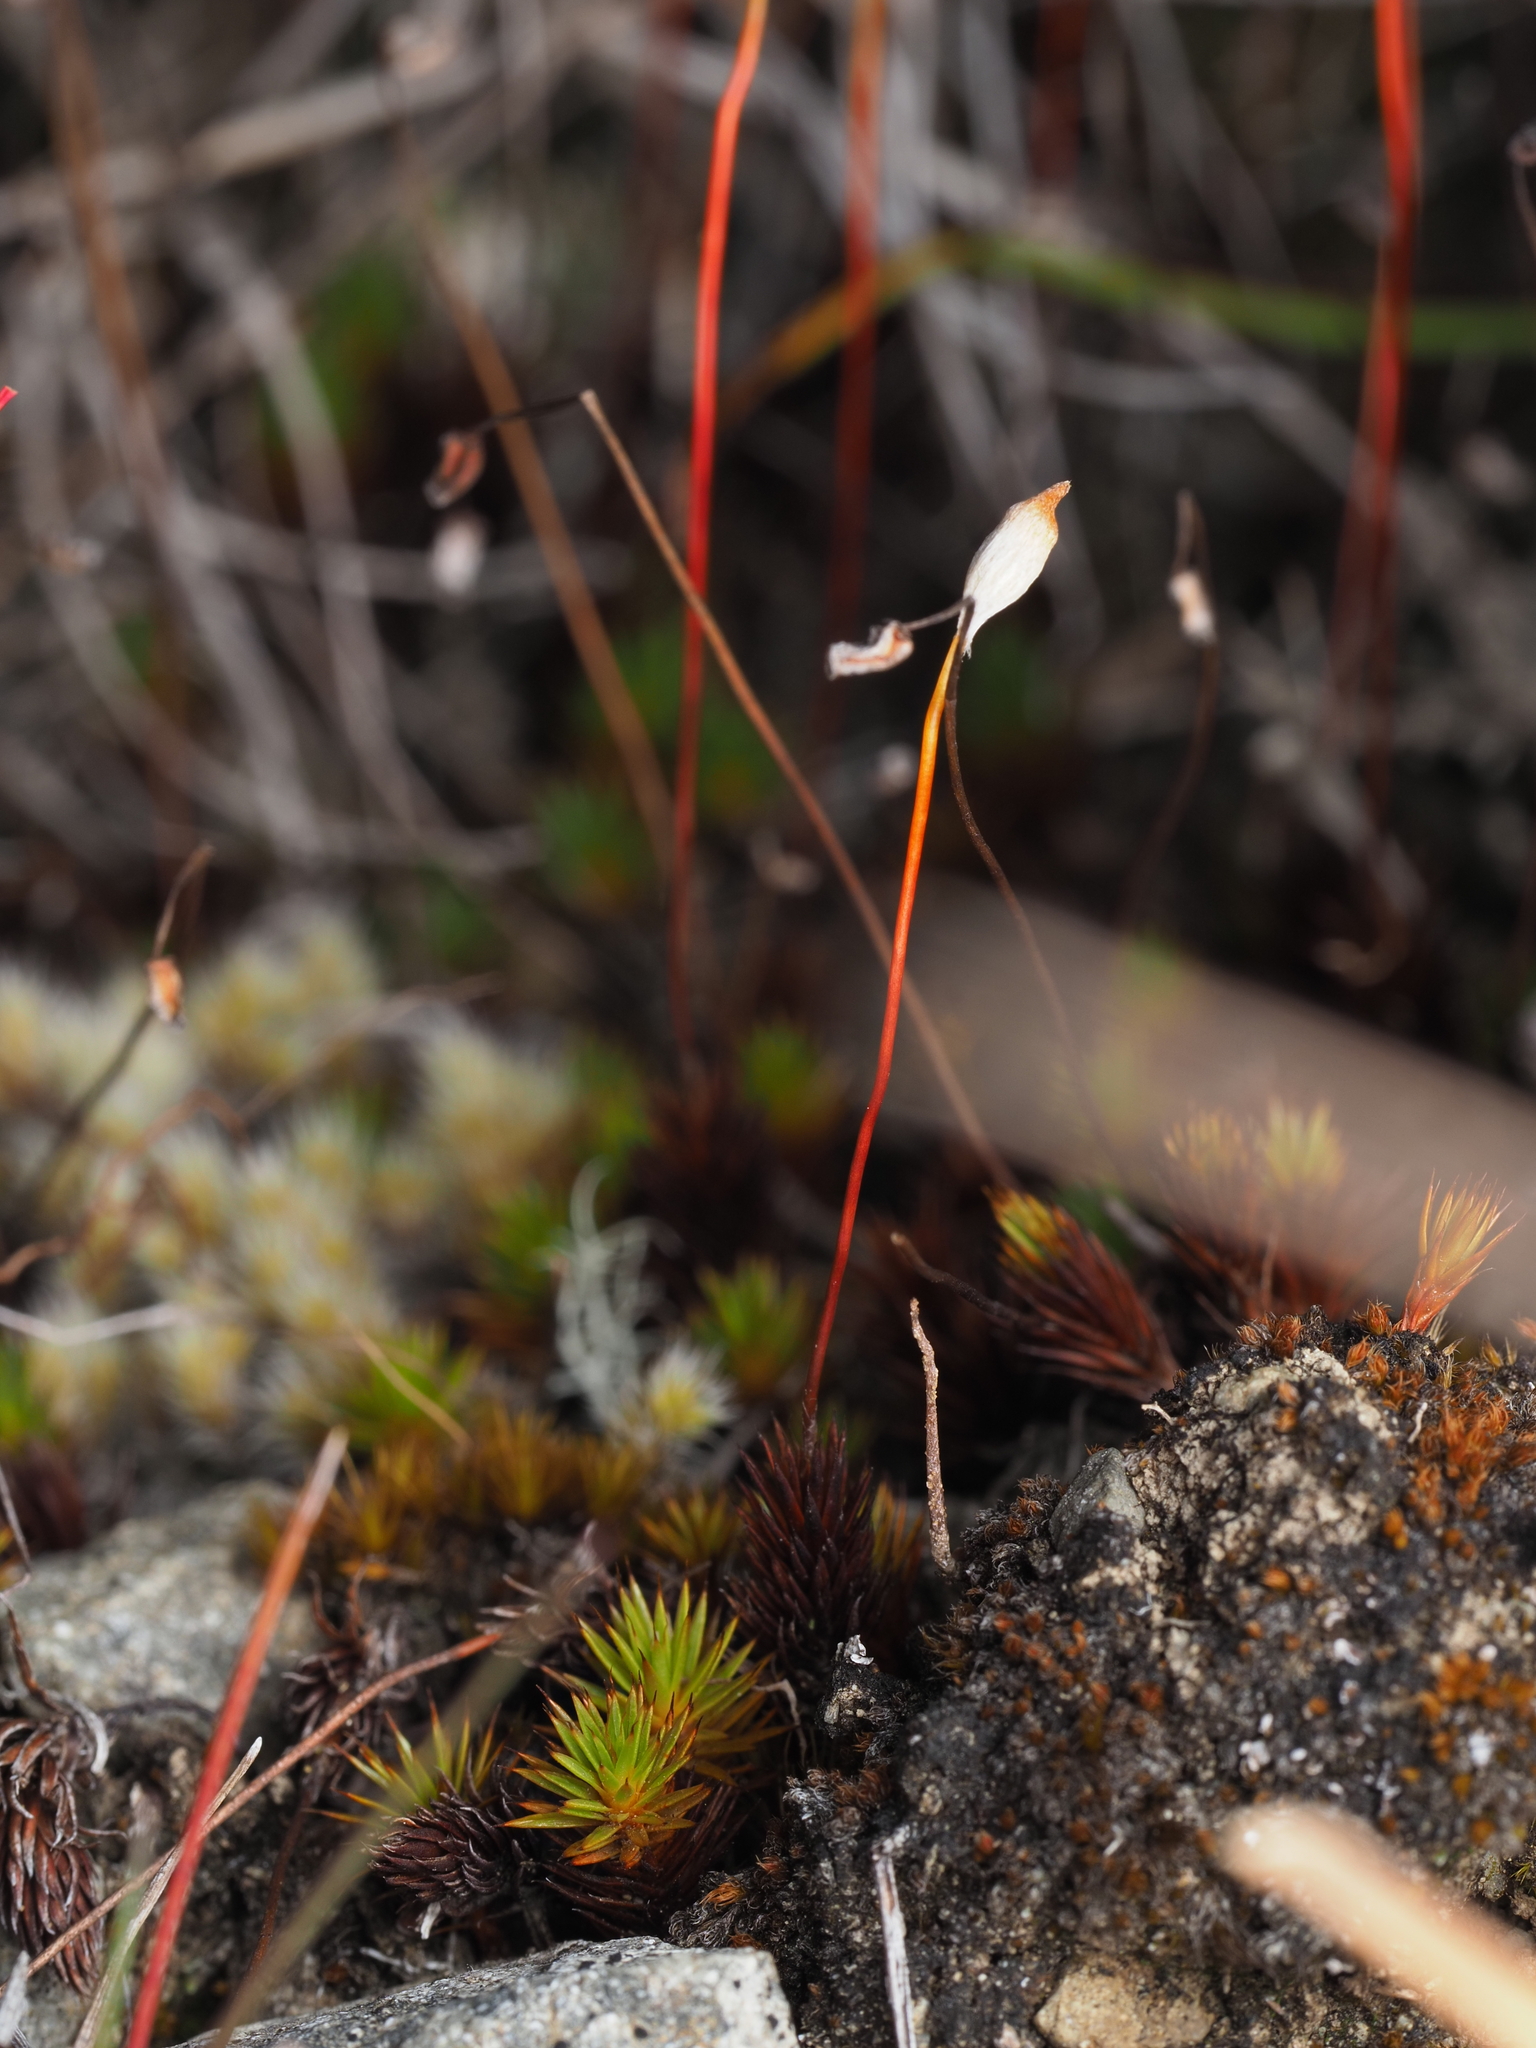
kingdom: Plantae
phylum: Bryophyta
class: Polytrichopsida
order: Polytrichales
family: Polytrichaceae
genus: Polytrichum
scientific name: Polytrichum juniperinum
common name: Juniper haircap moss
